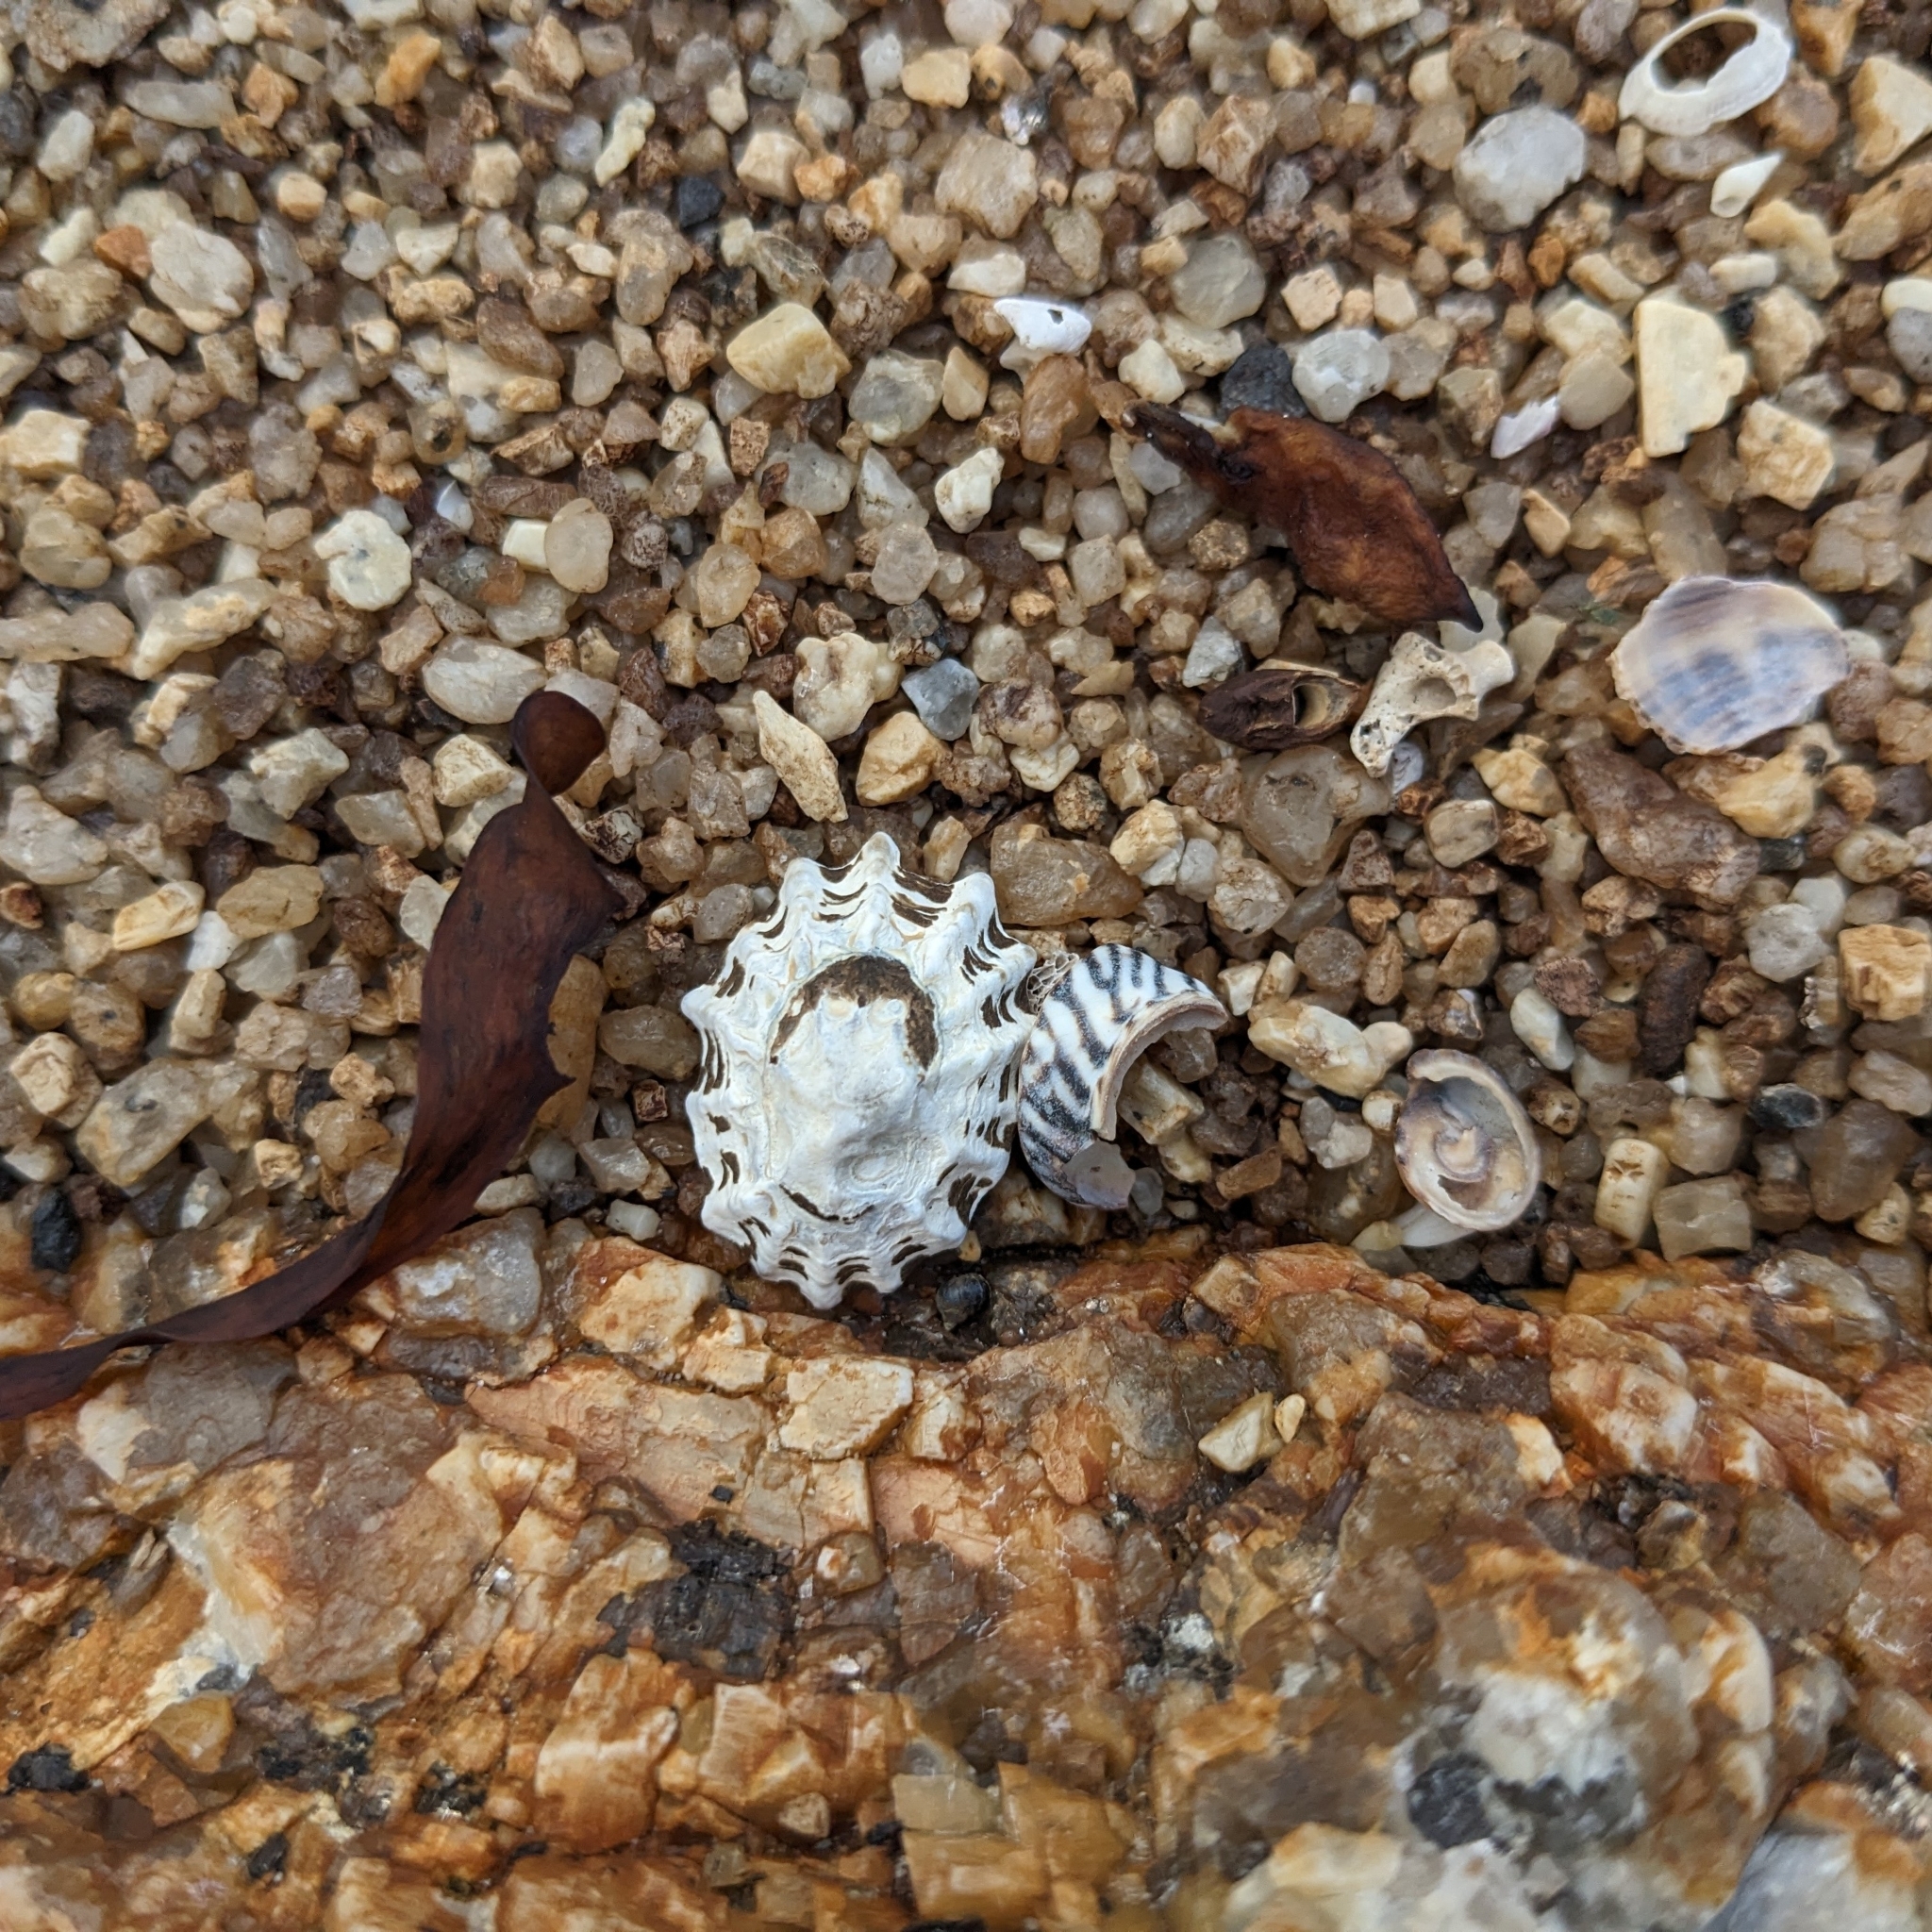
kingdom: Animalia
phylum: Mollusca
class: Gastropoda
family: Lottiidae
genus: Patelloida
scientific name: Patelloida alticostata
